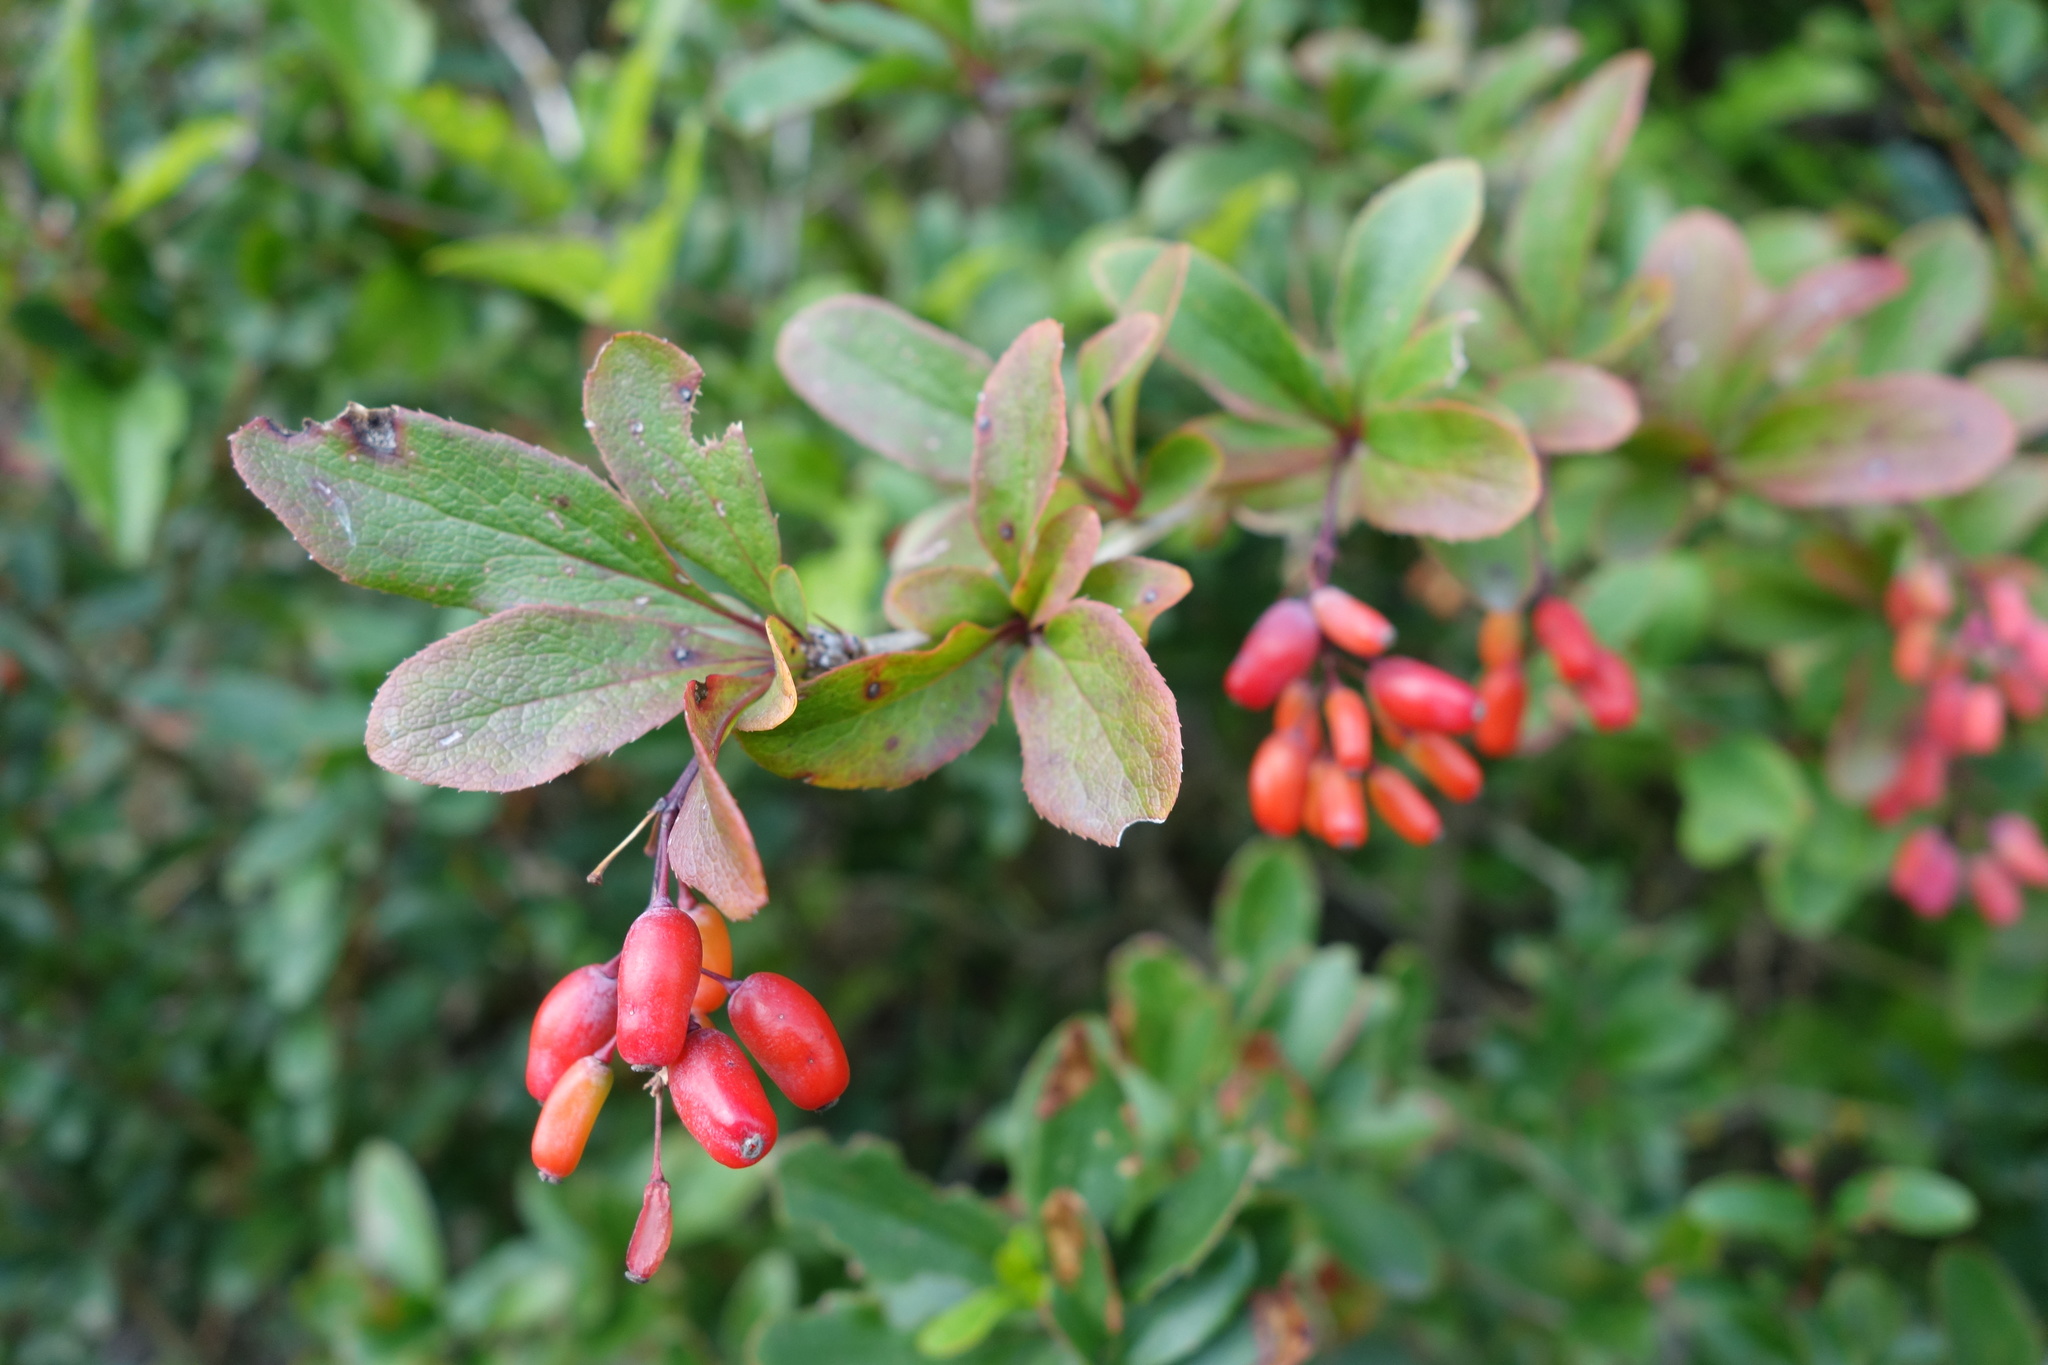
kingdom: Plantae
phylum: Tracheophyta
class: Magnoliopsida
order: Ranunculales
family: Berberidaceae
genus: Berberis
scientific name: Berberis vulgaris
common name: Barberry
